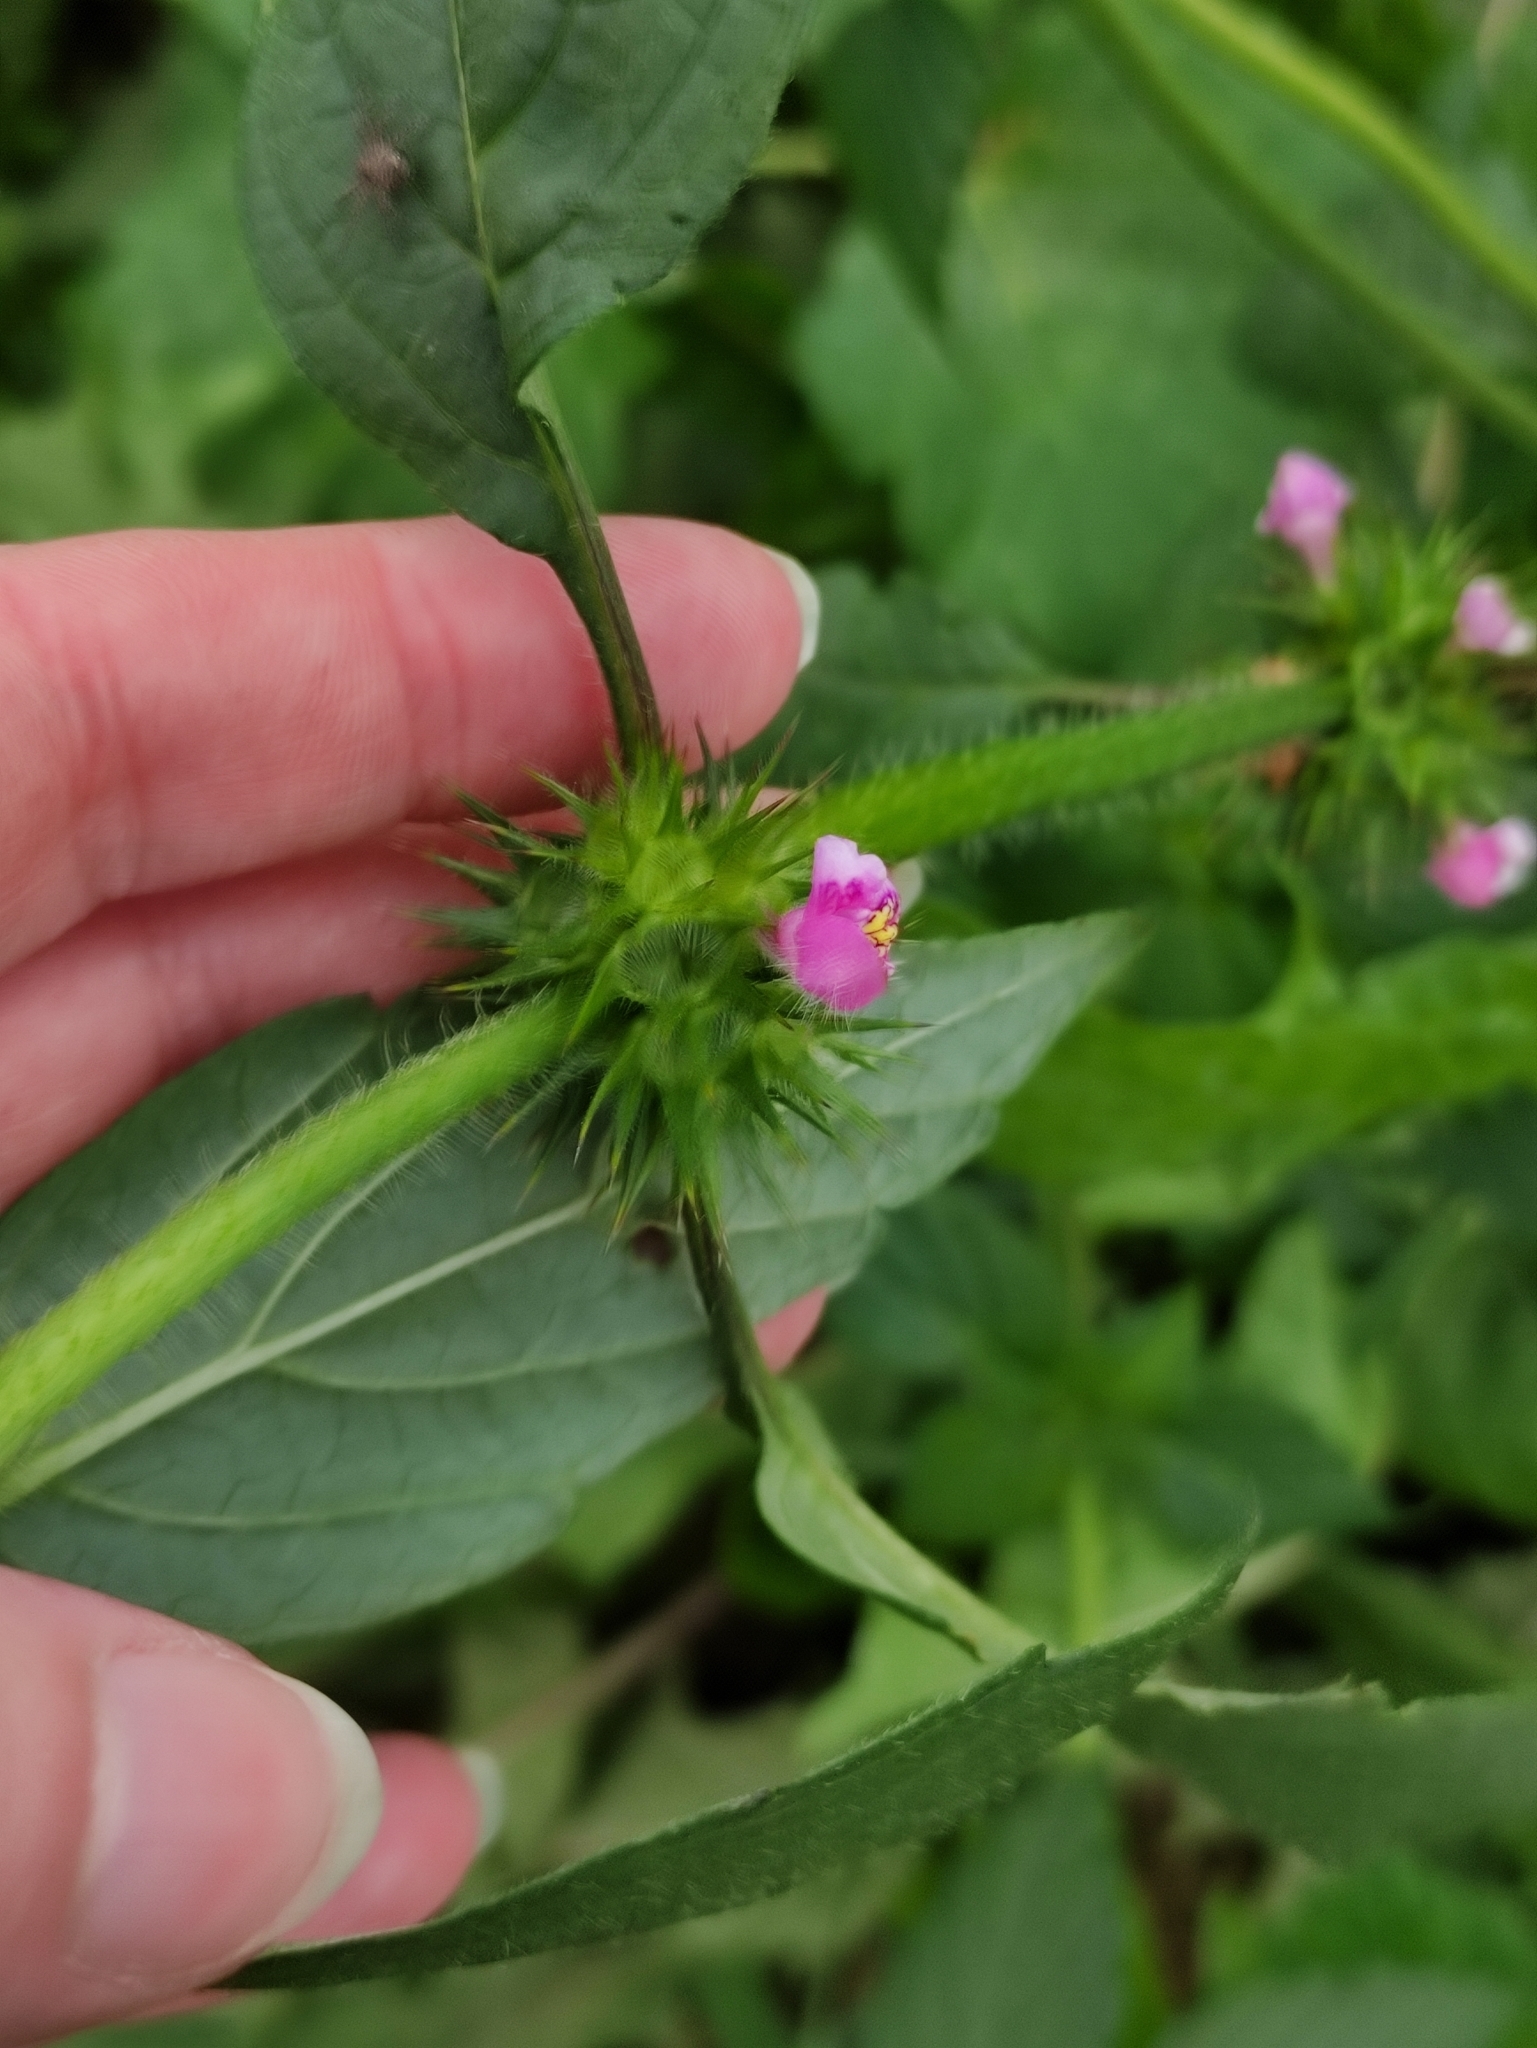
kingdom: Plantae
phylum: Tracheophyta
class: Magnoliopsida
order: Lamiales
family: Lamiaceae
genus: Galeopsis
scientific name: Galeopsis bifida
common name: Bifid hemp-nettle
